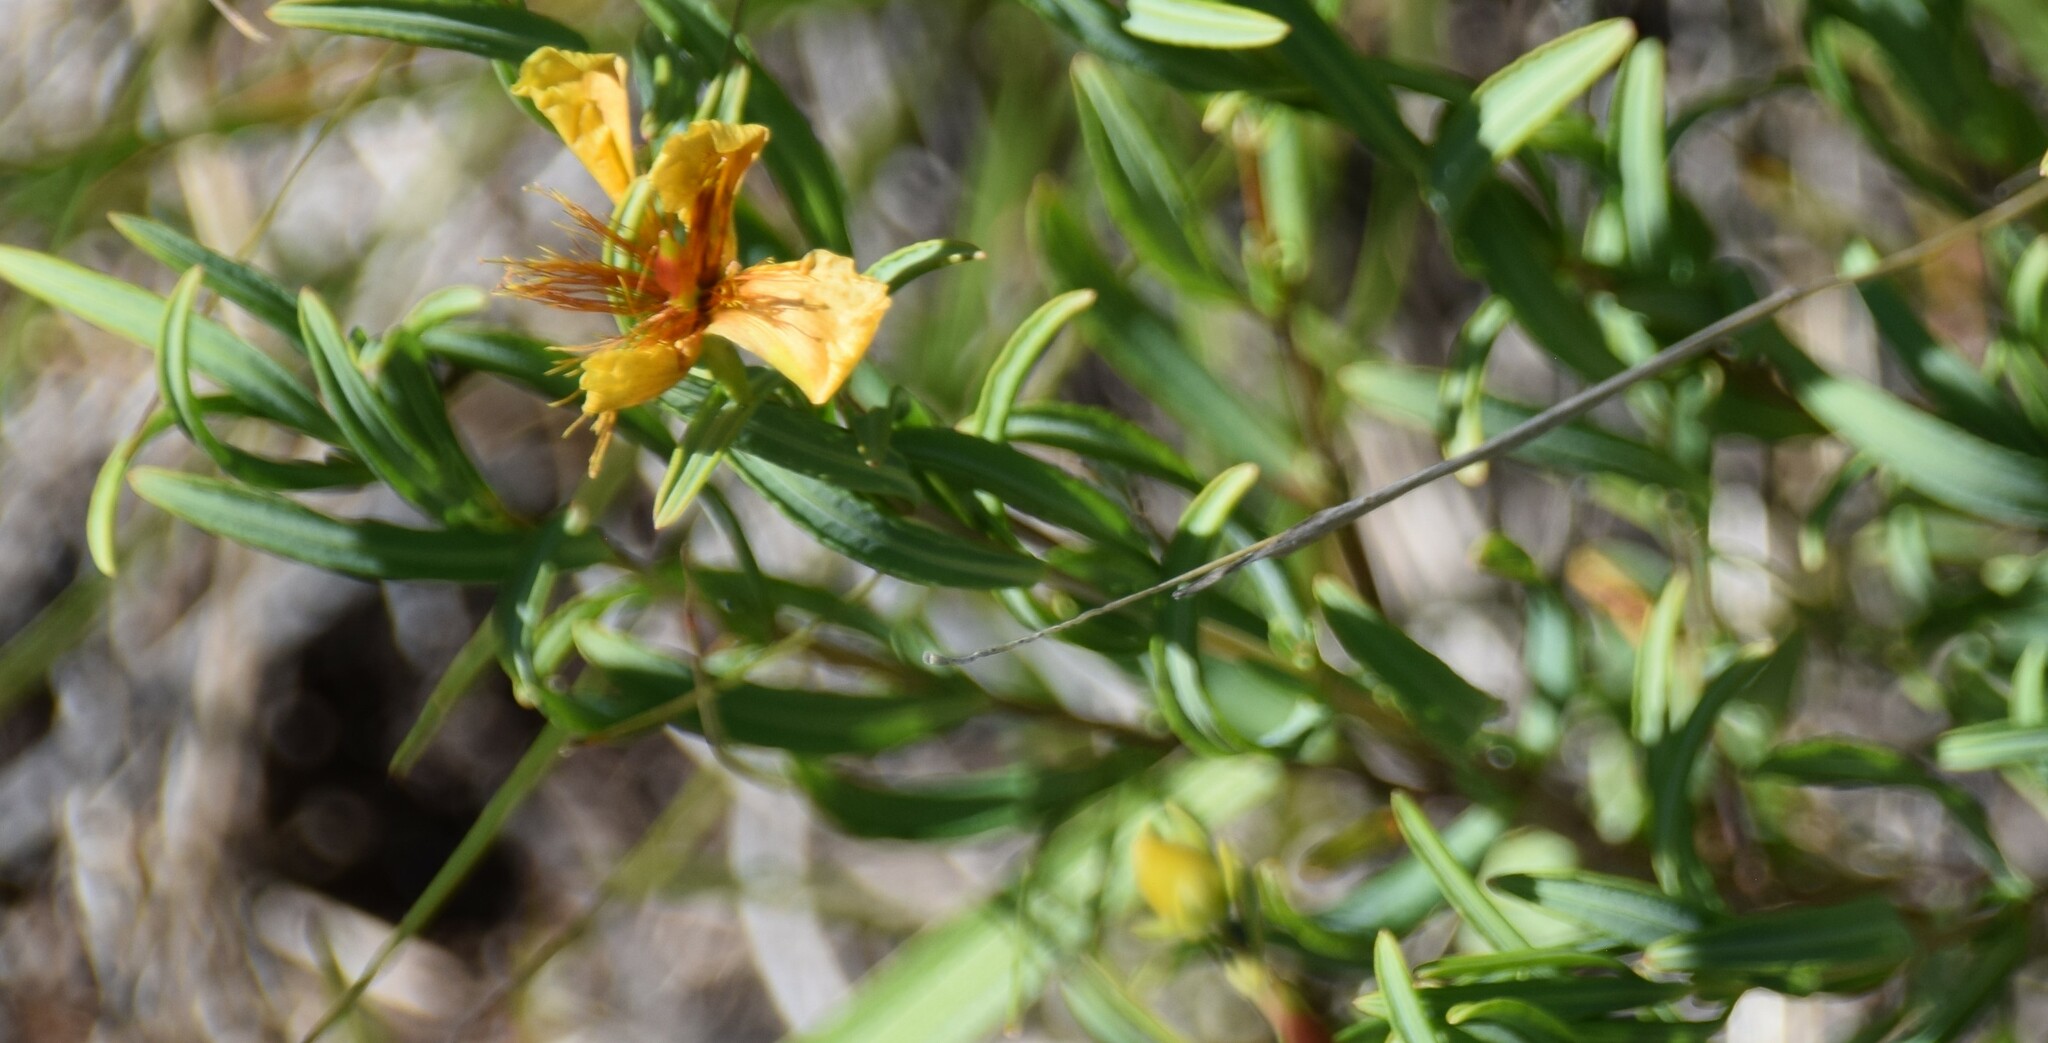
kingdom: Plantae
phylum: Tracheophyta
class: Magnoliopsida
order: Malpighiales
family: Hypericaceae
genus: Hypericum
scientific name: Hypericum kalmianum
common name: Kalm's st. john's-wort
